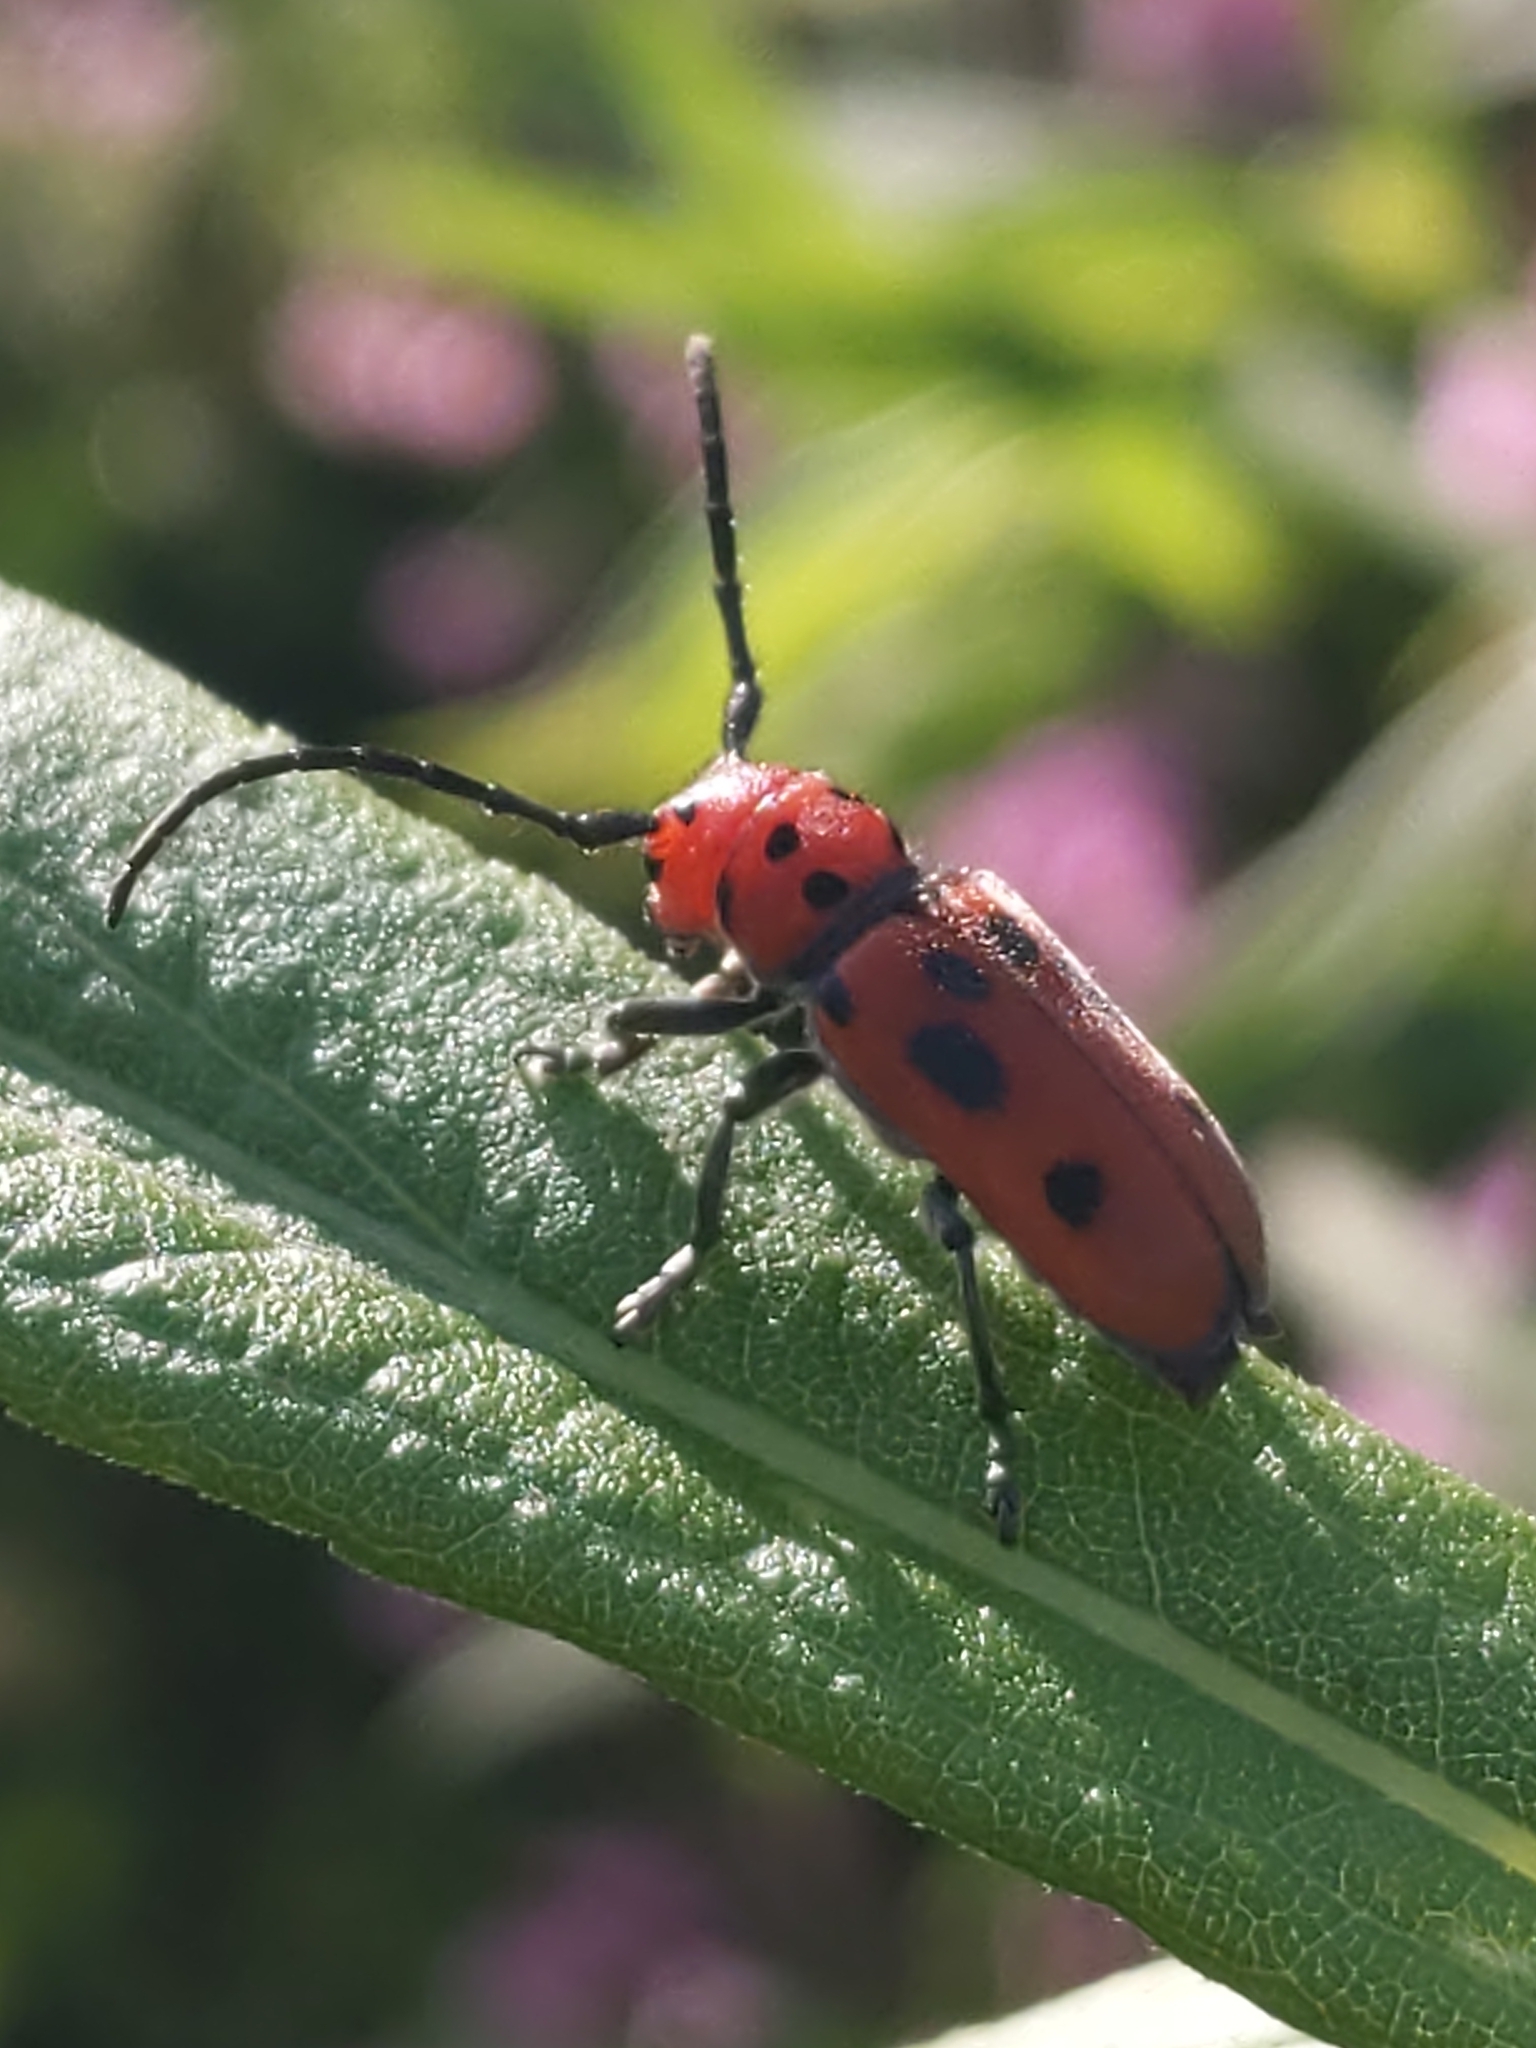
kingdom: Animalia
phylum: Arthropoda
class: Insecta
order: Coleoptera
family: Cerambycidae
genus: Tetraopes
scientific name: Tetraopes tetrophthalmus
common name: Red milkweed beetle
